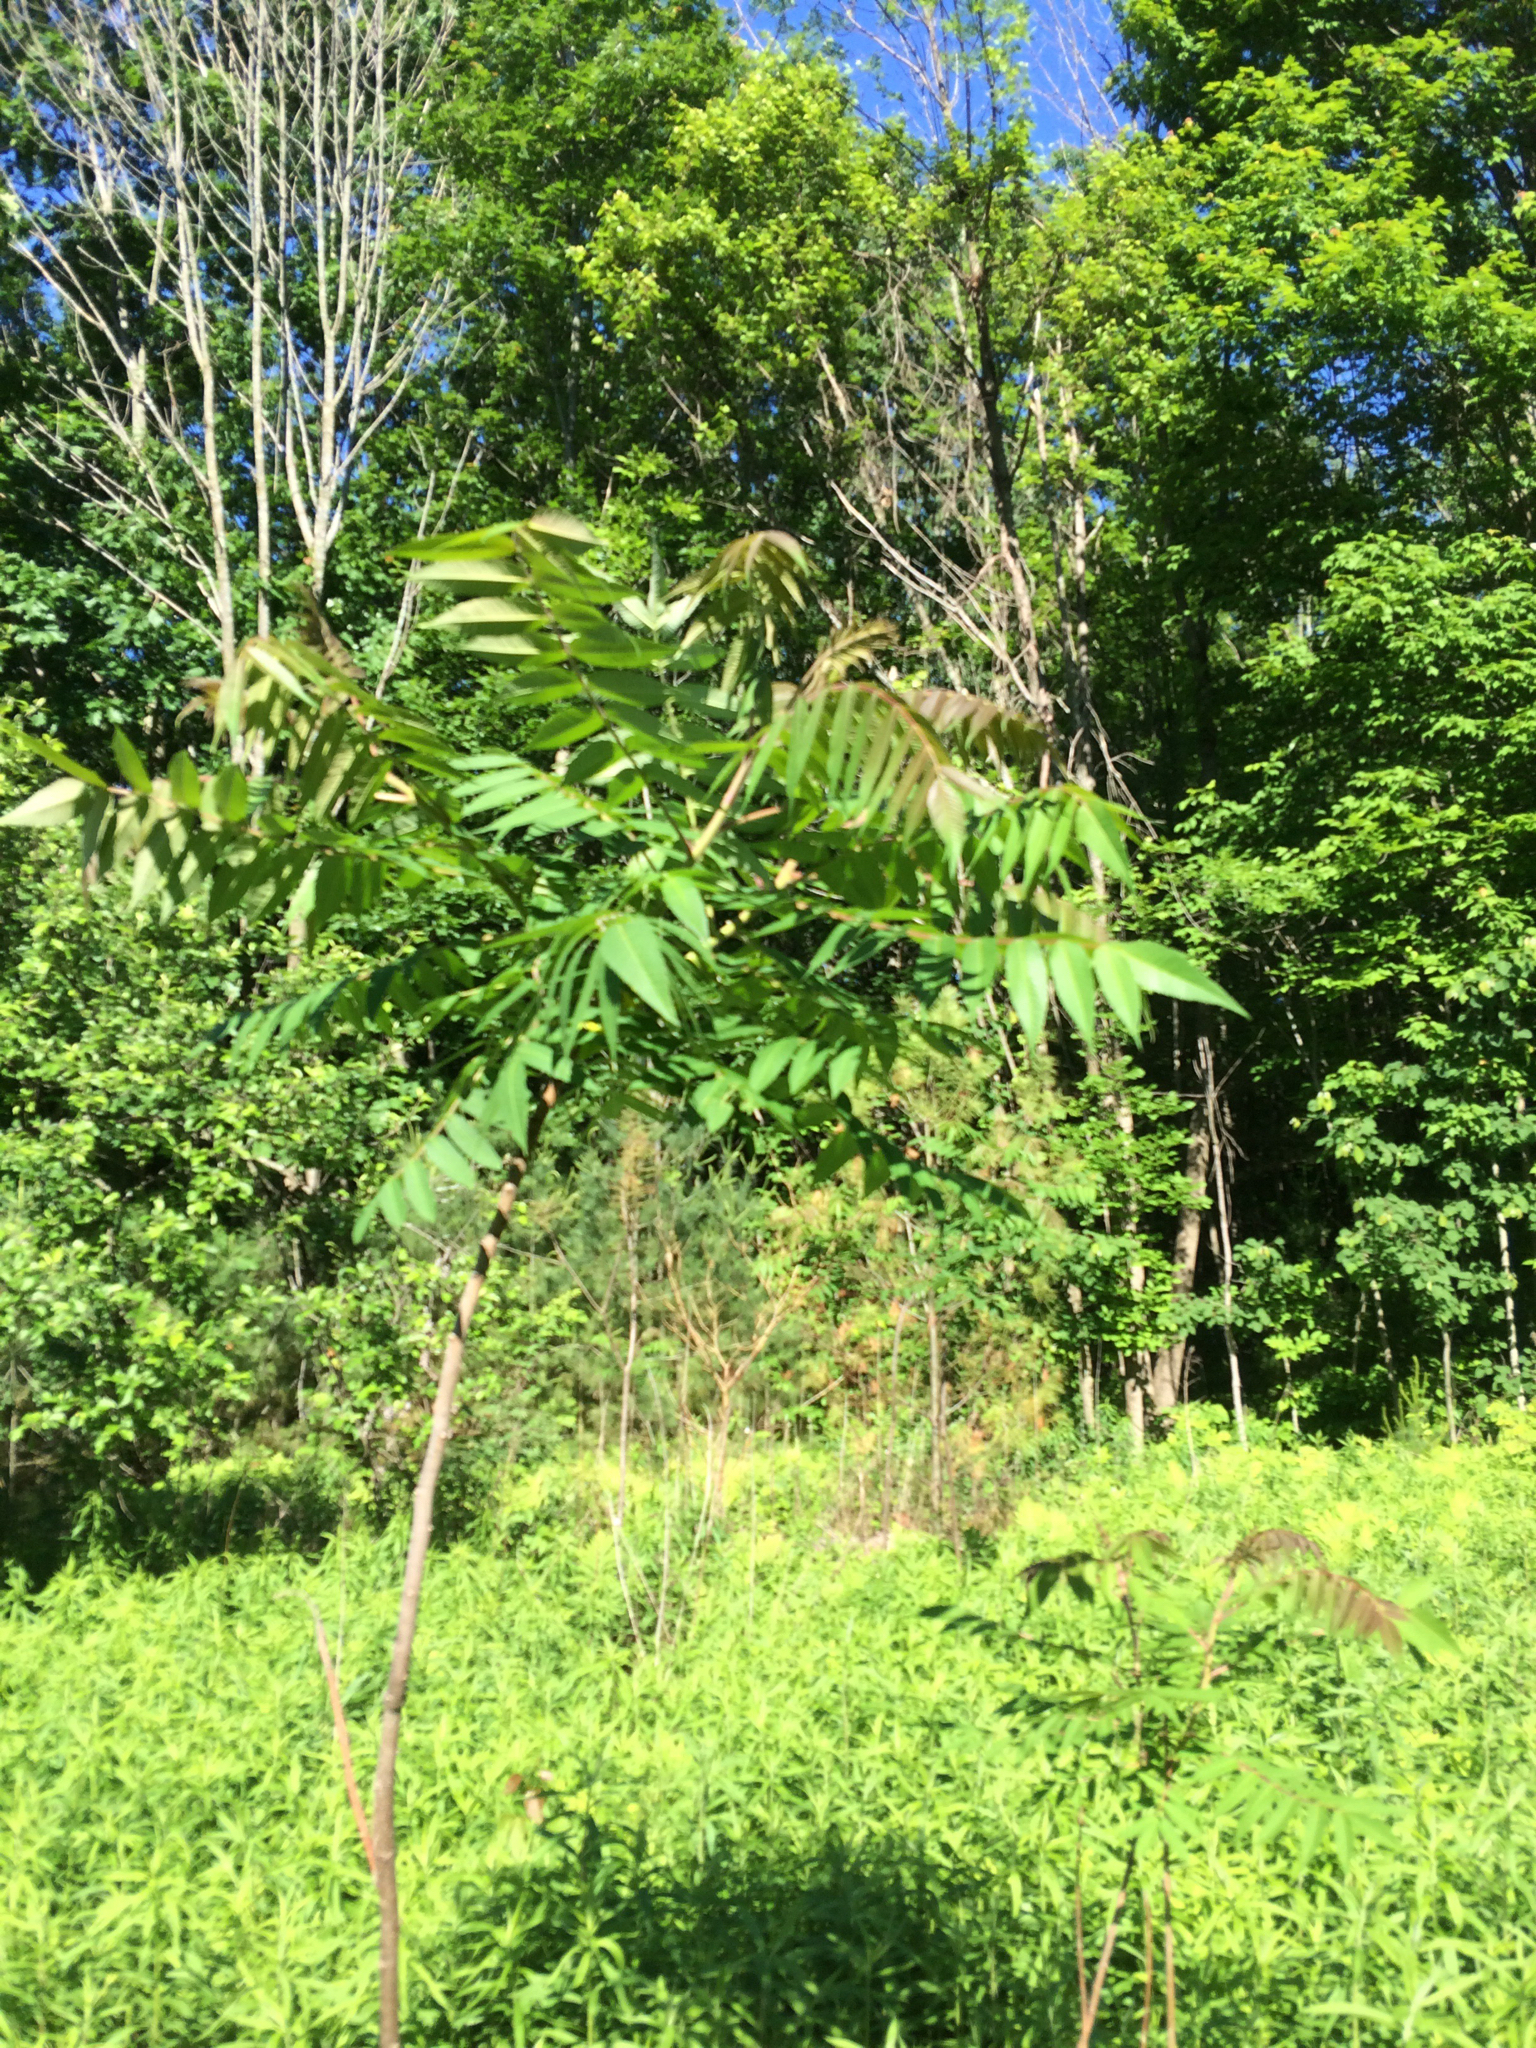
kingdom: Plantae
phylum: Tracheophyta
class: Magnoliopsida
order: Sapindales
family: Anacardiaceae
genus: Rhus
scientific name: Rhus typhina
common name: Staghorn sumac
